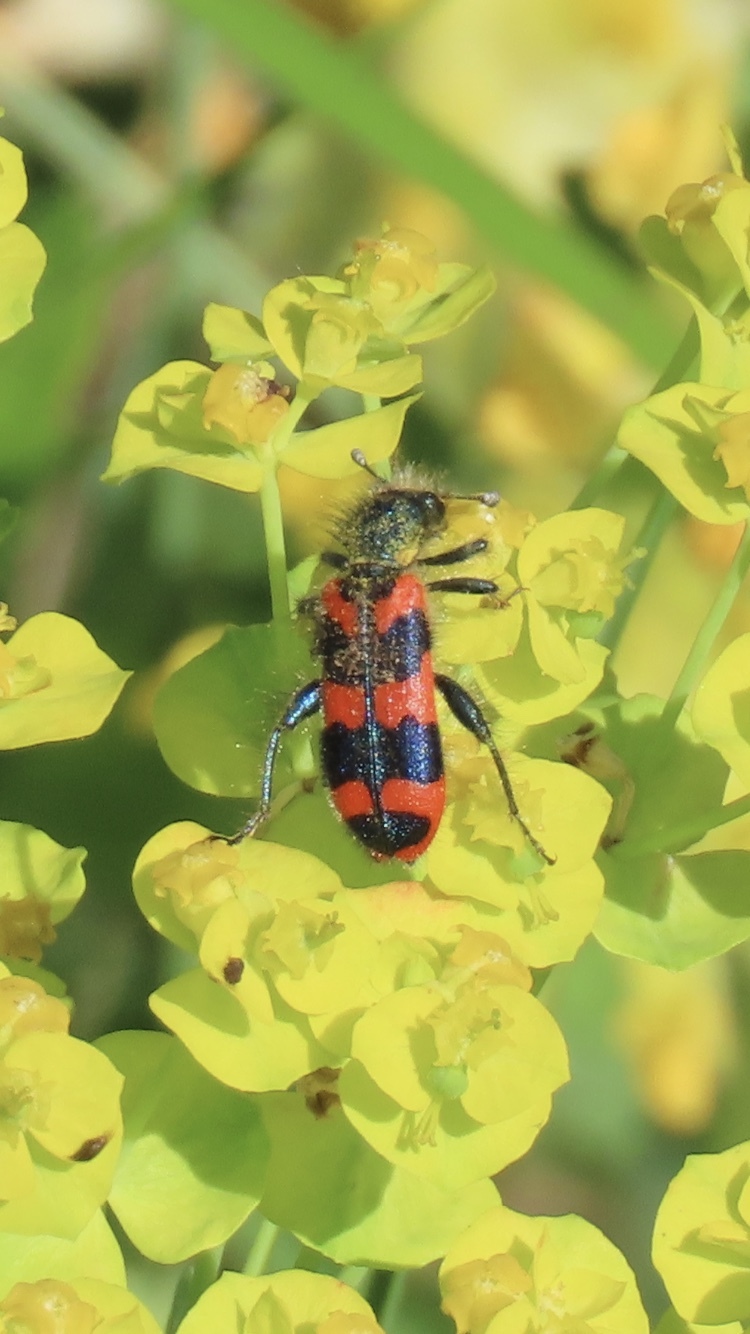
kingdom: Animalia
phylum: Arthropoda
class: Insecta
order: Coleoptera
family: Cleridae
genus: Trichodes
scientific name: Trichodes alvearius
